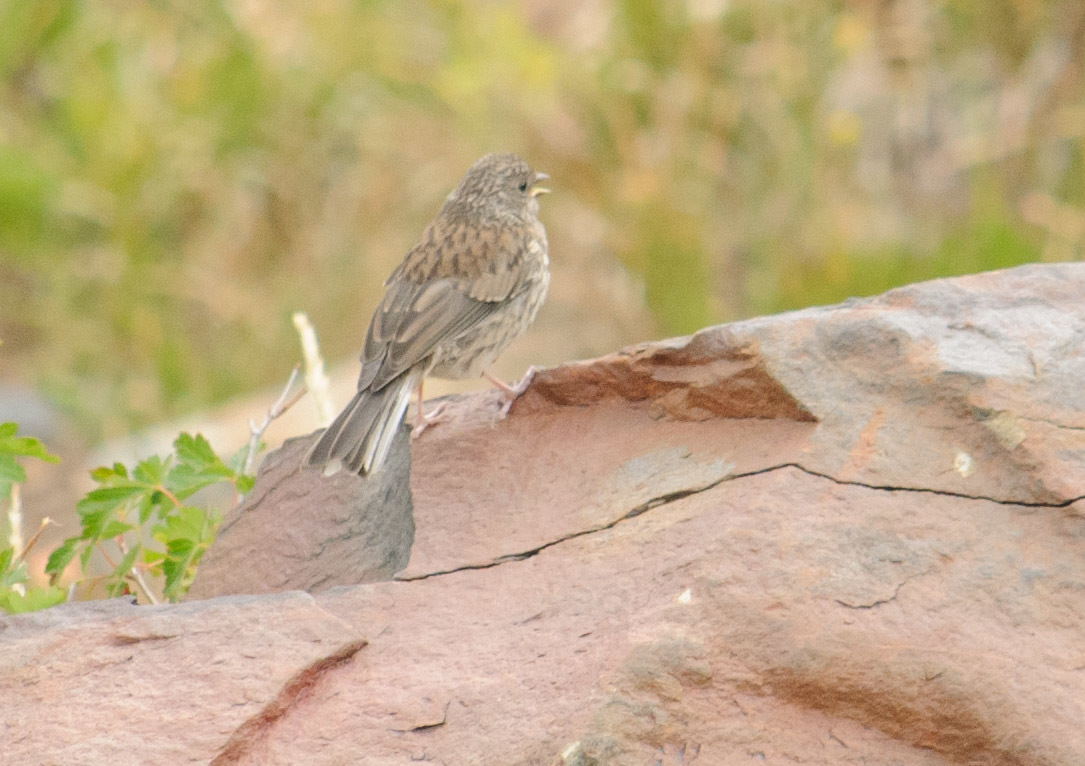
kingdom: Animalia
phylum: Chordata
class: Aves
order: Passeriformes
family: Passerellidae
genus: Junco
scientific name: Junco hyemalis
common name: Dark-eyed junco
